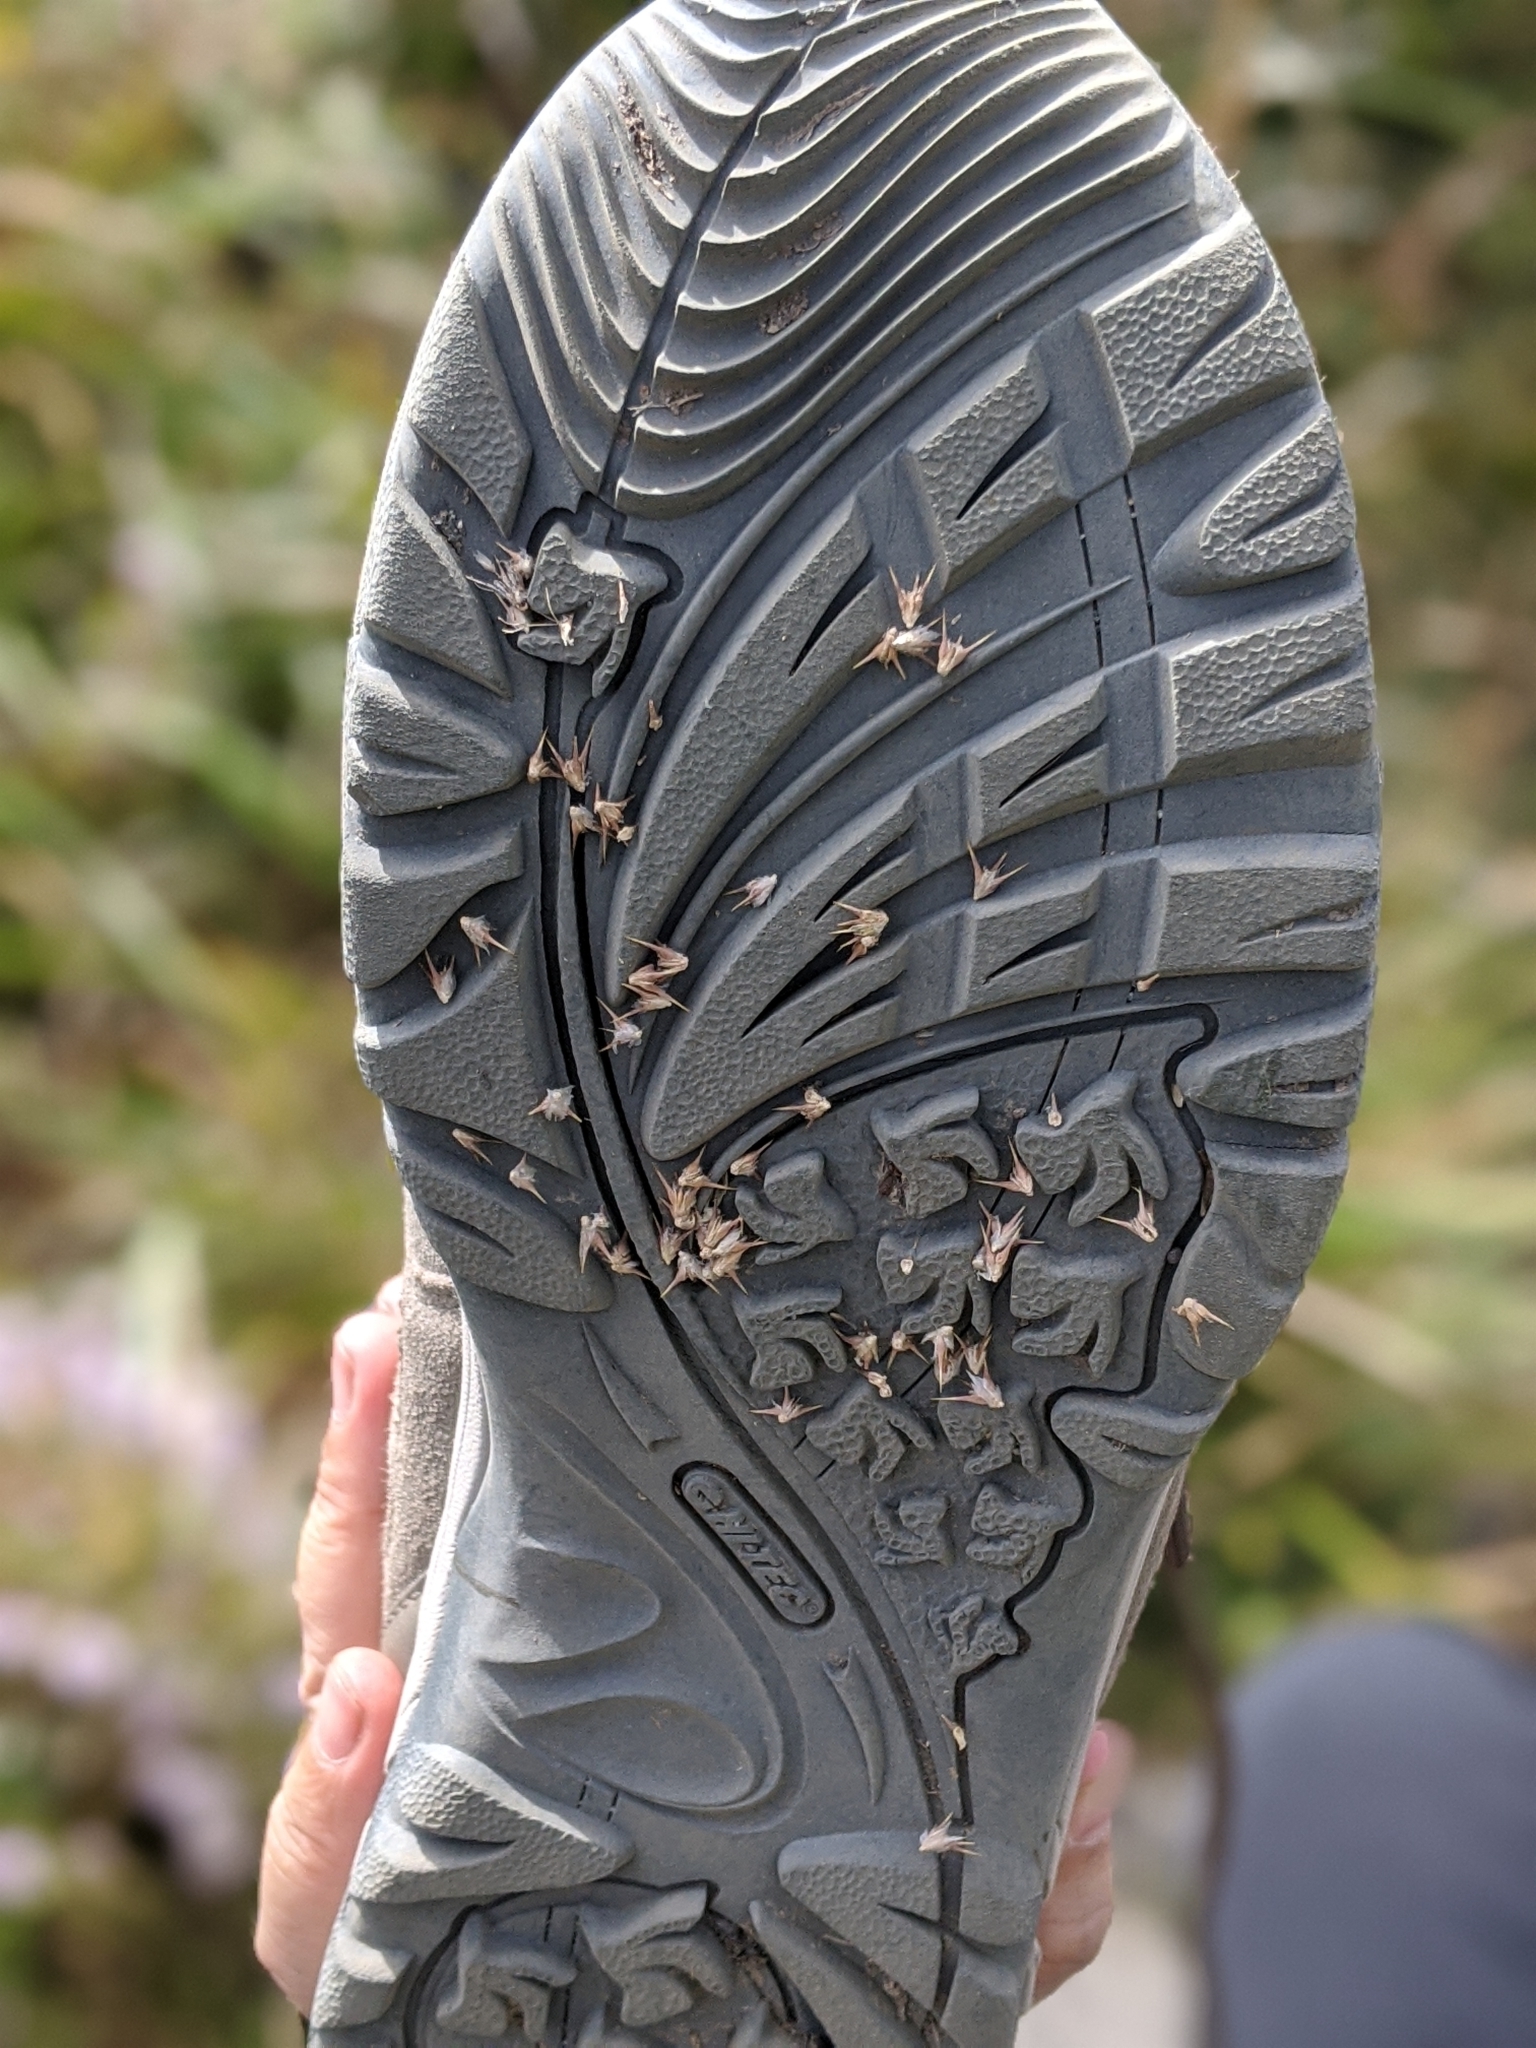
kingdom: Plantae
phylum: Tracheophyta
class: Magnoliopsida
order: Caryophyllales
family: Caryophyllaceae
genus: Cardionema
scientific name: Cardionema ramosissima
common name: Sandcarpet
